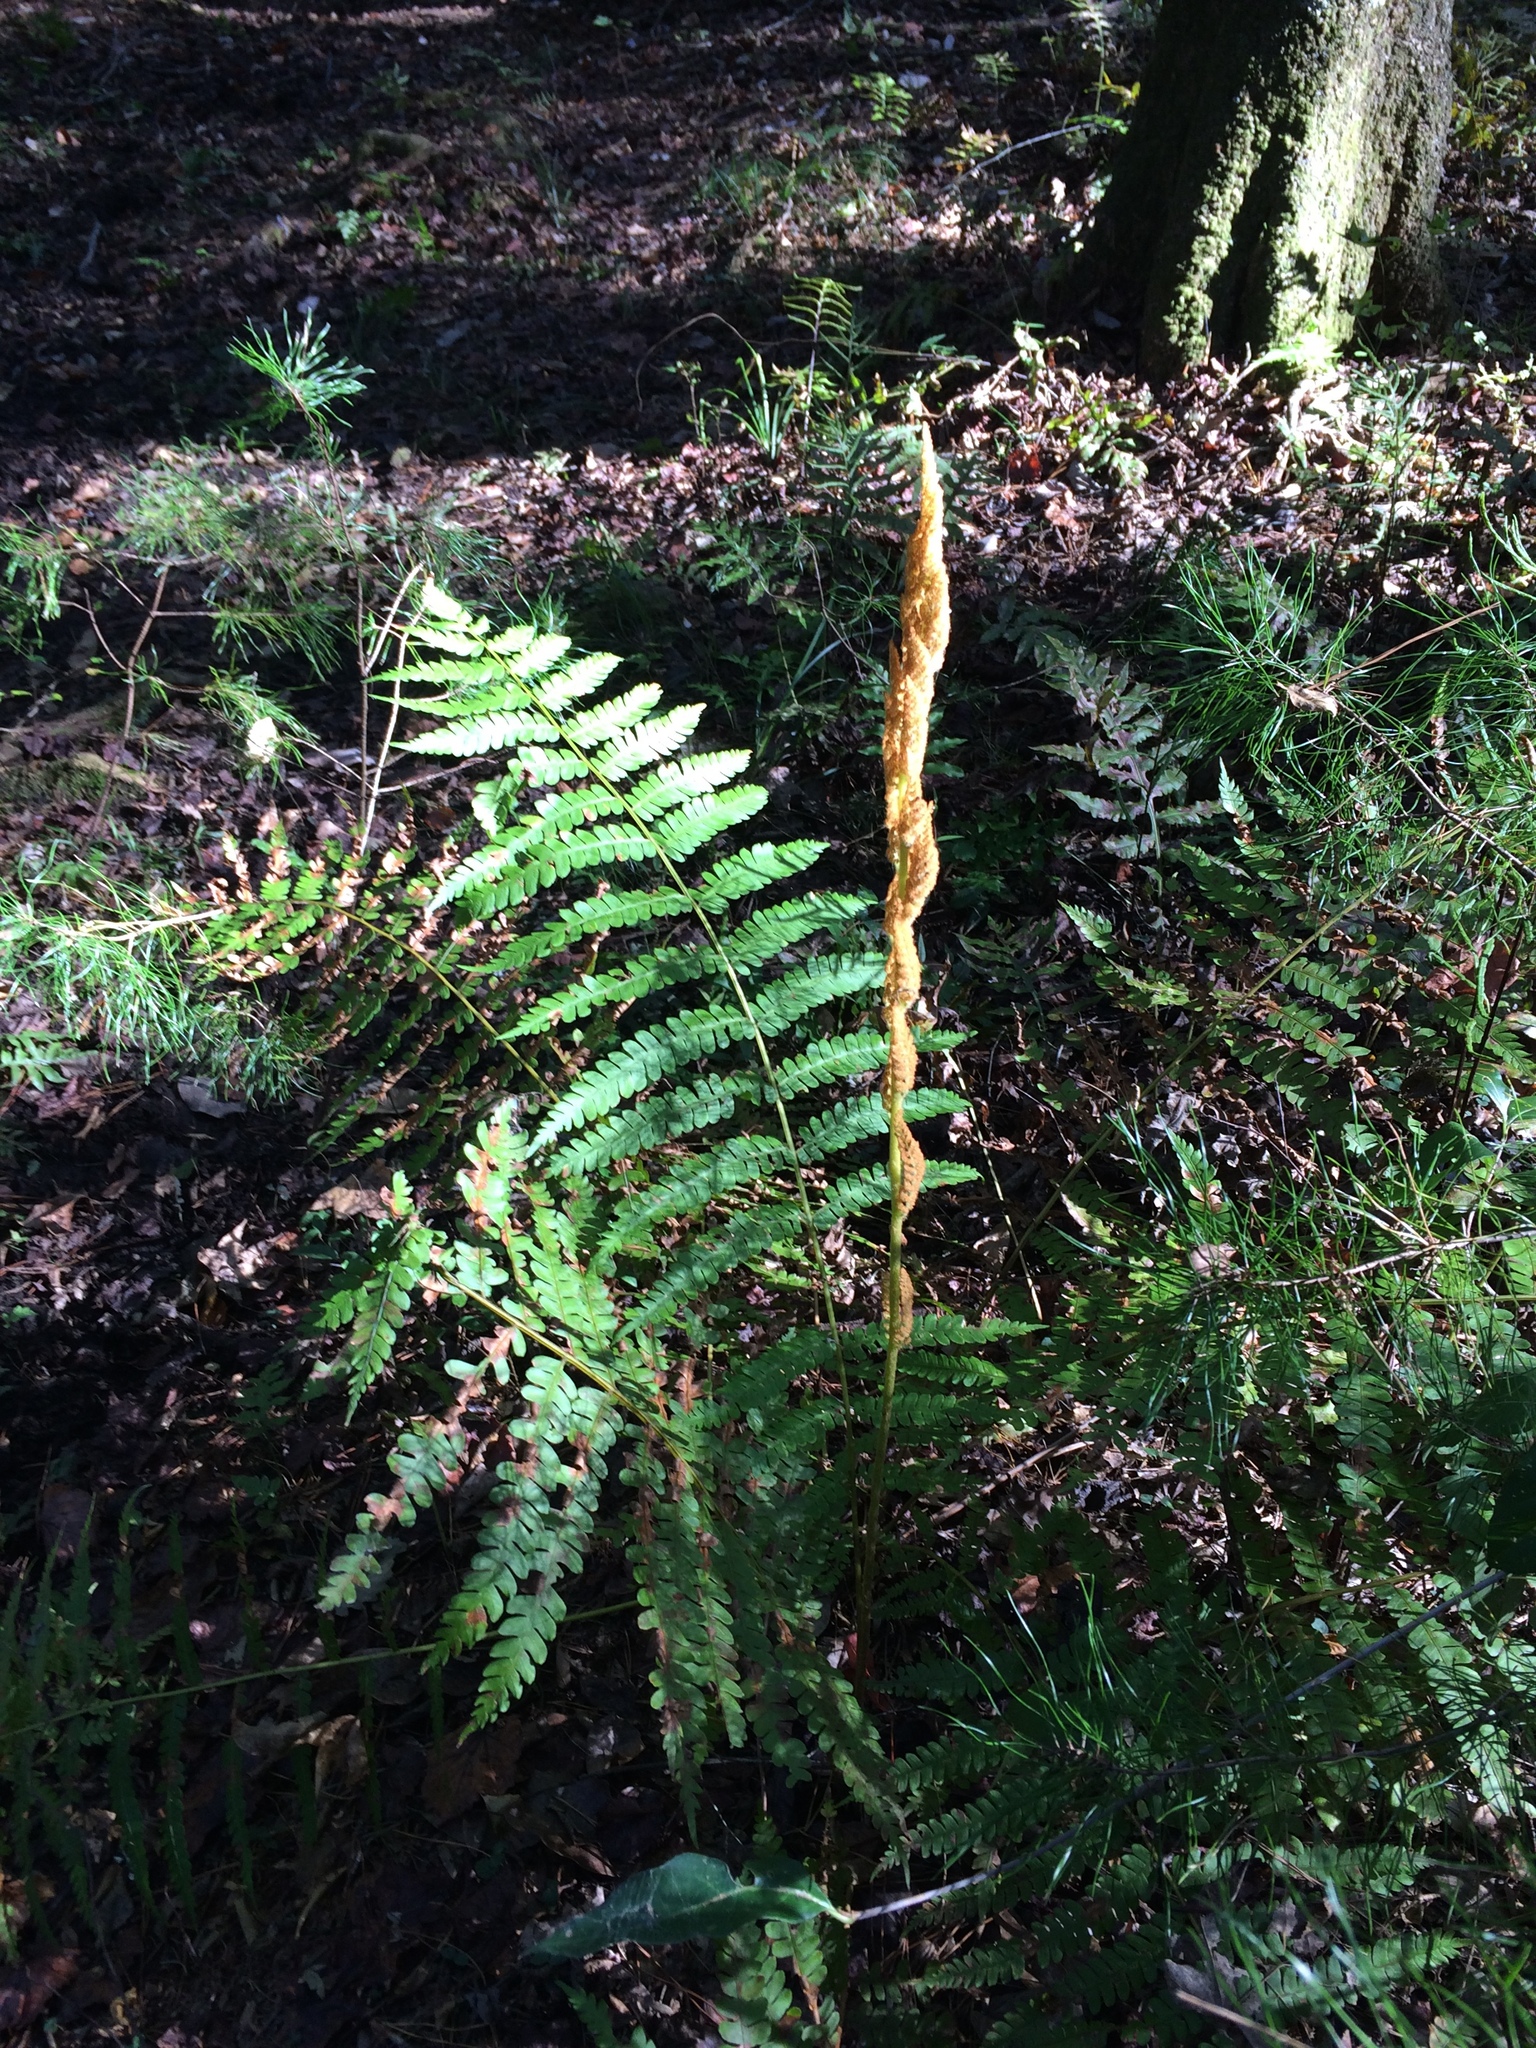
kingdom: Plantae
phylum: Tracheophyta
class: Polypodiopsida
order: Osmundales
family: Osmundaceae
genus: Osmundastrum
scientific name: Osmundastrum cinnamomeum
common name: Cinnamon fern
